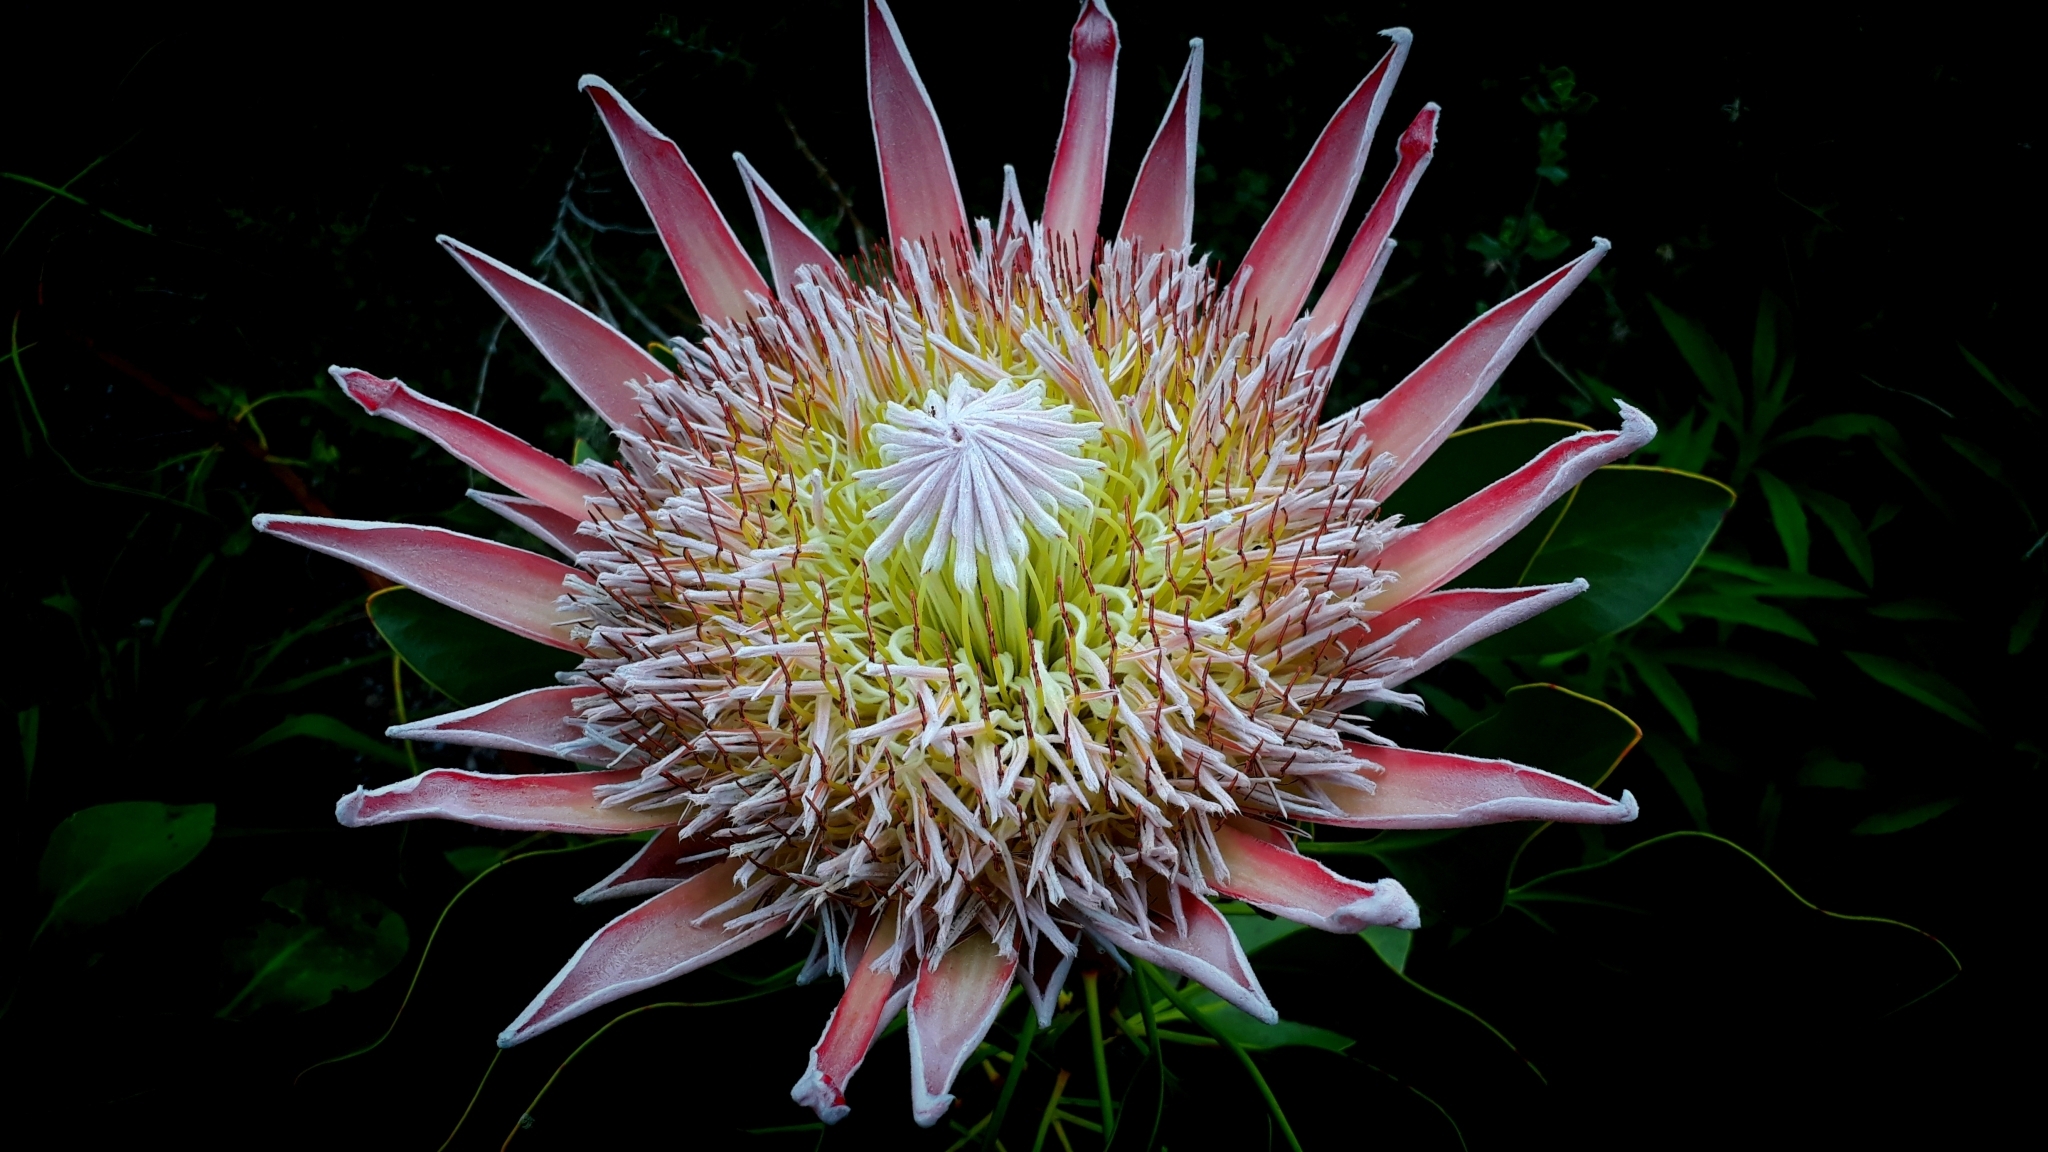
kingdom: Plantae
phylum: Tracheophyta
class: Magnoliopsida
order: Proteales
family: Proteaceae
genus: Protea
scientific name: Protea cynaroides
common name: King protea
